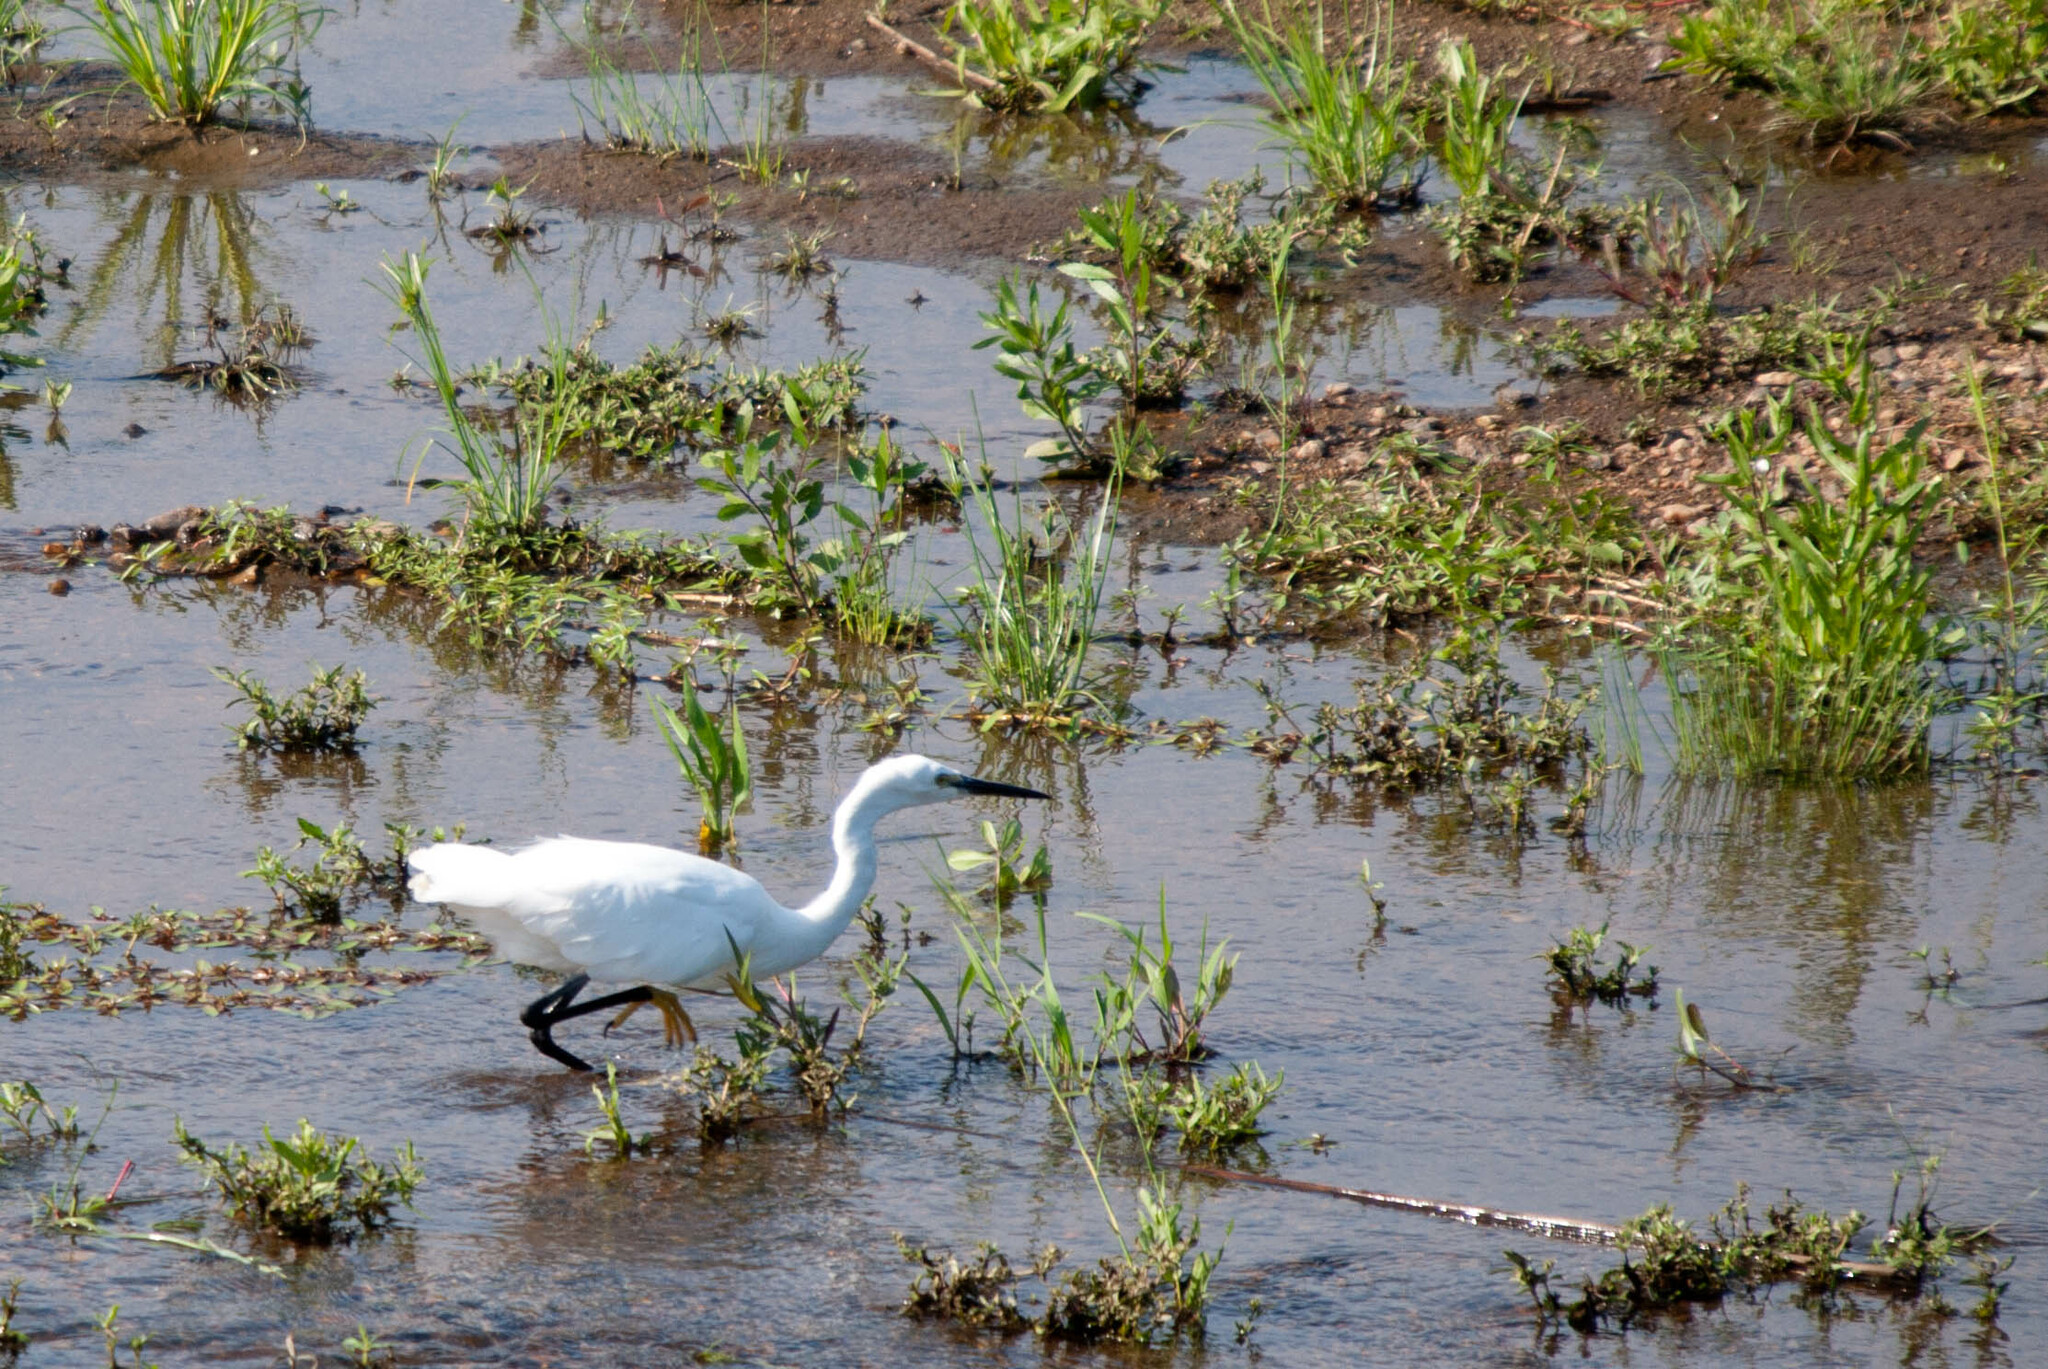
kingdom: Animalia
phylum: Chordata
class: Aves
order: Pelecaniformes
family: Ardeidae
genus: Egretta
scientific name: Egretta garzetta
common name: Little egret
